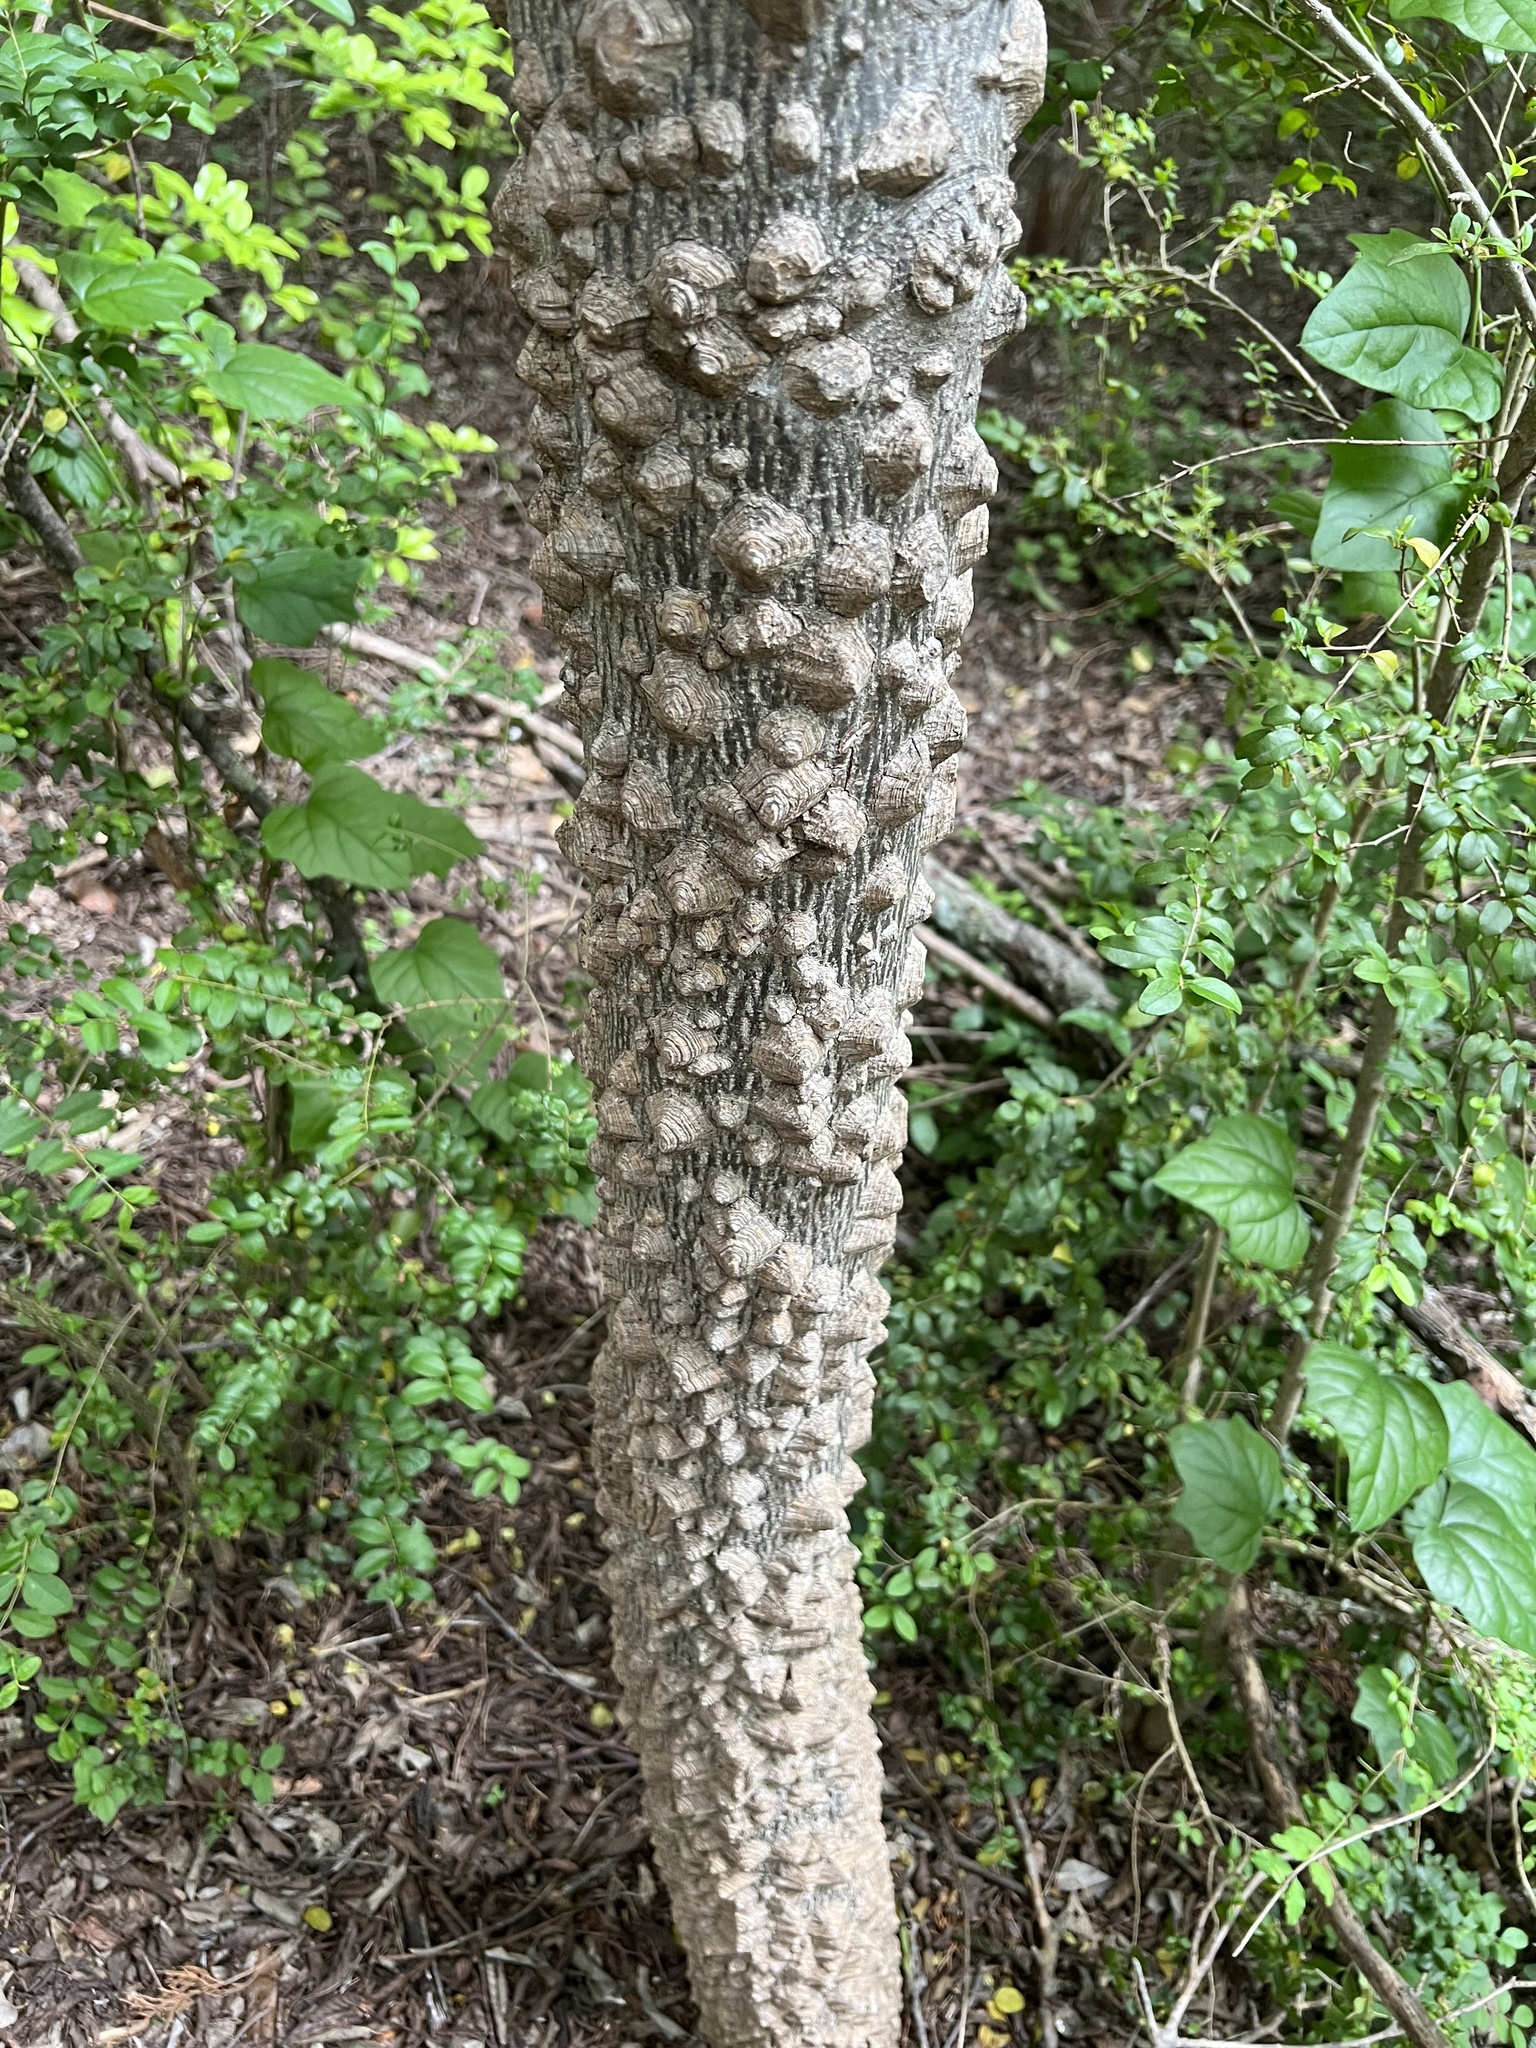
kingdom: Plantae
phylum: Tracheophyta
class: Magnoliopsida
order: Sapindales
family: Rutaceae
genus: Zanthoxylum
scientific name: Zanthoxylum clava-herculis
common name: Hercules'-club
